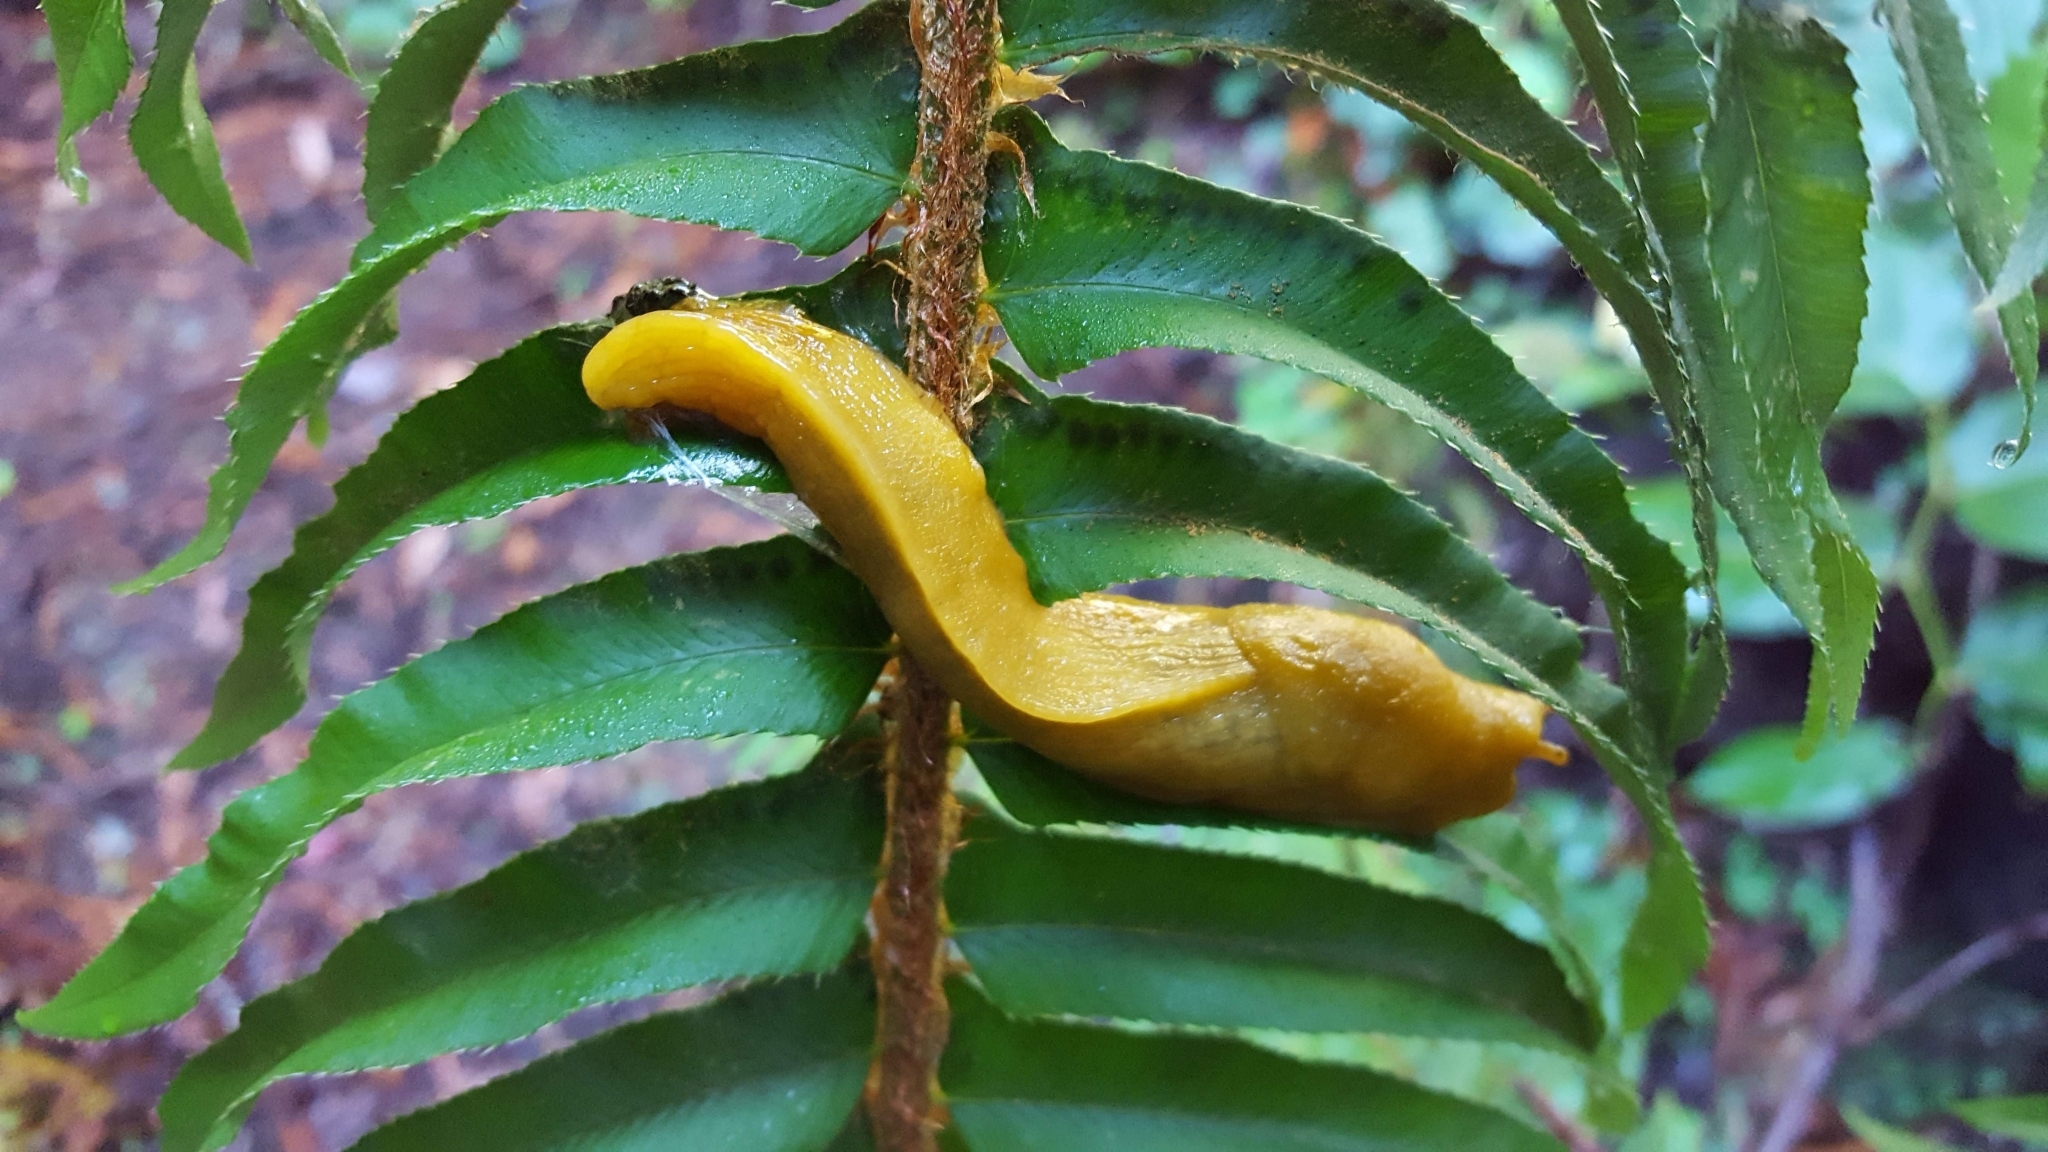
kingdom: Animalia
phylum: Mollusca
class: Gastropoda
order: Stylommatophora
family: Ariolimacidae
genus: Ariolimax
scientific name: Ariolimax columbianus
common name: Pacific banana slug
